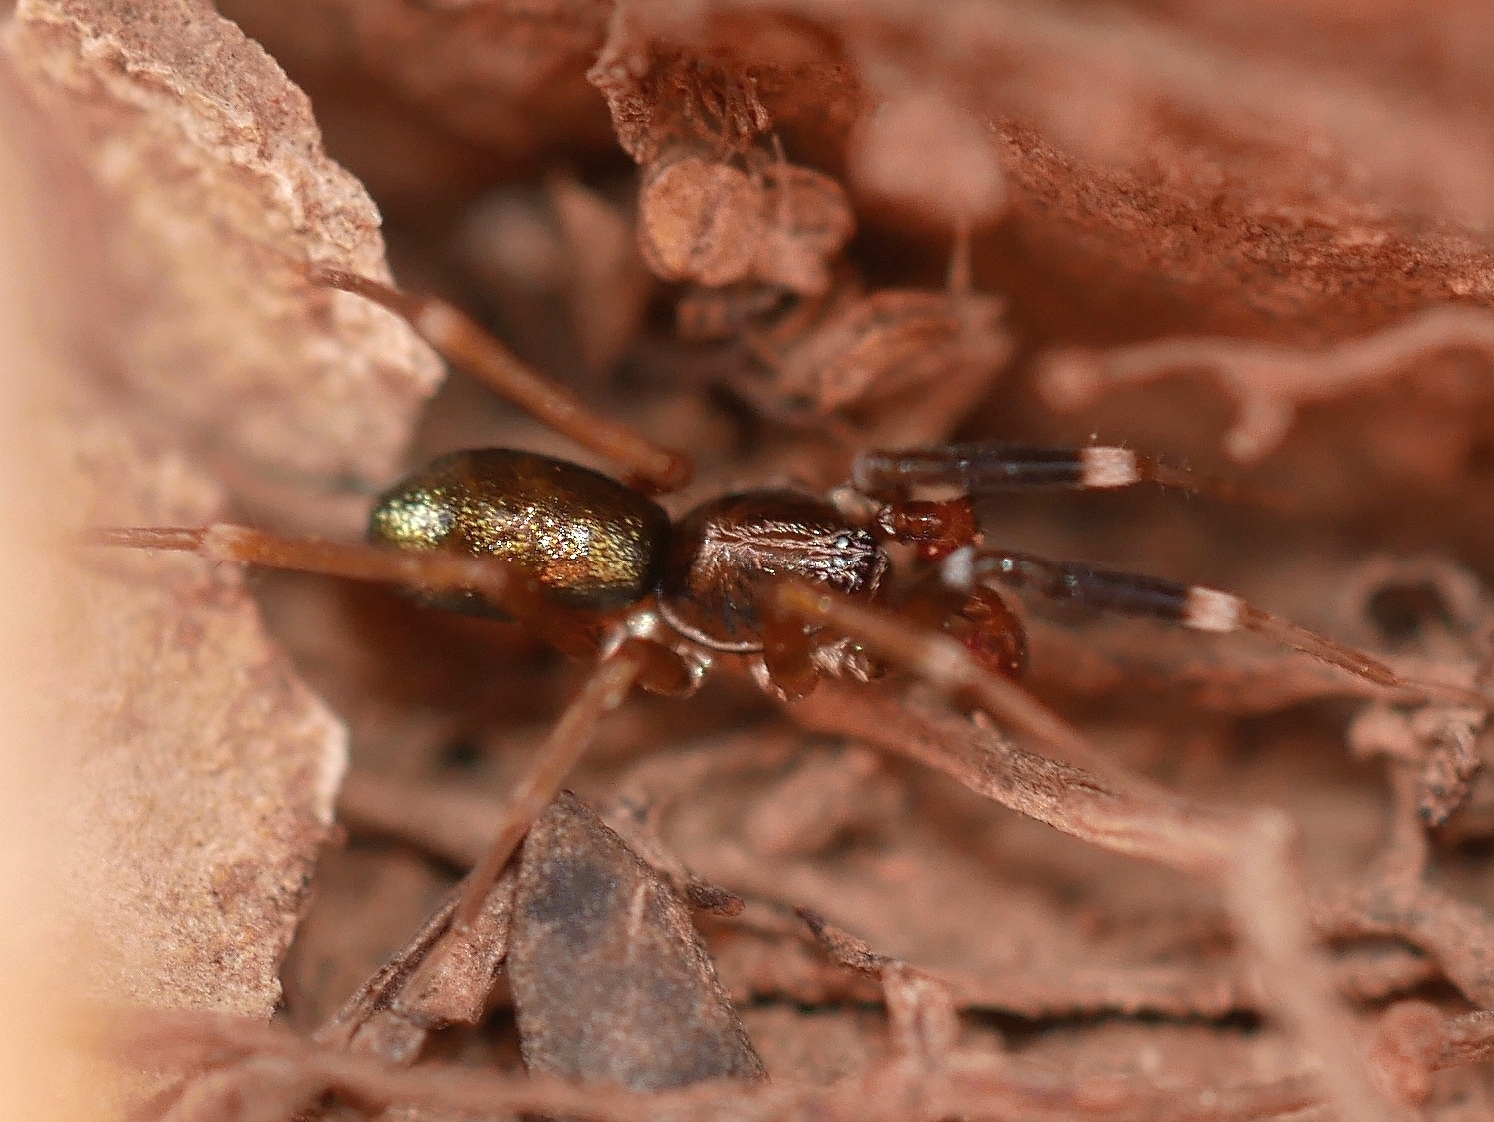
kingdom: Animalia
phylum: Arthropoda
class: Arachnida
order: Araneae
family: Phrurolithidae
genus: Phrurotimpus
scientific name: Phrurotimpus borealis
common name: Greater ant-mimic corinne spider
